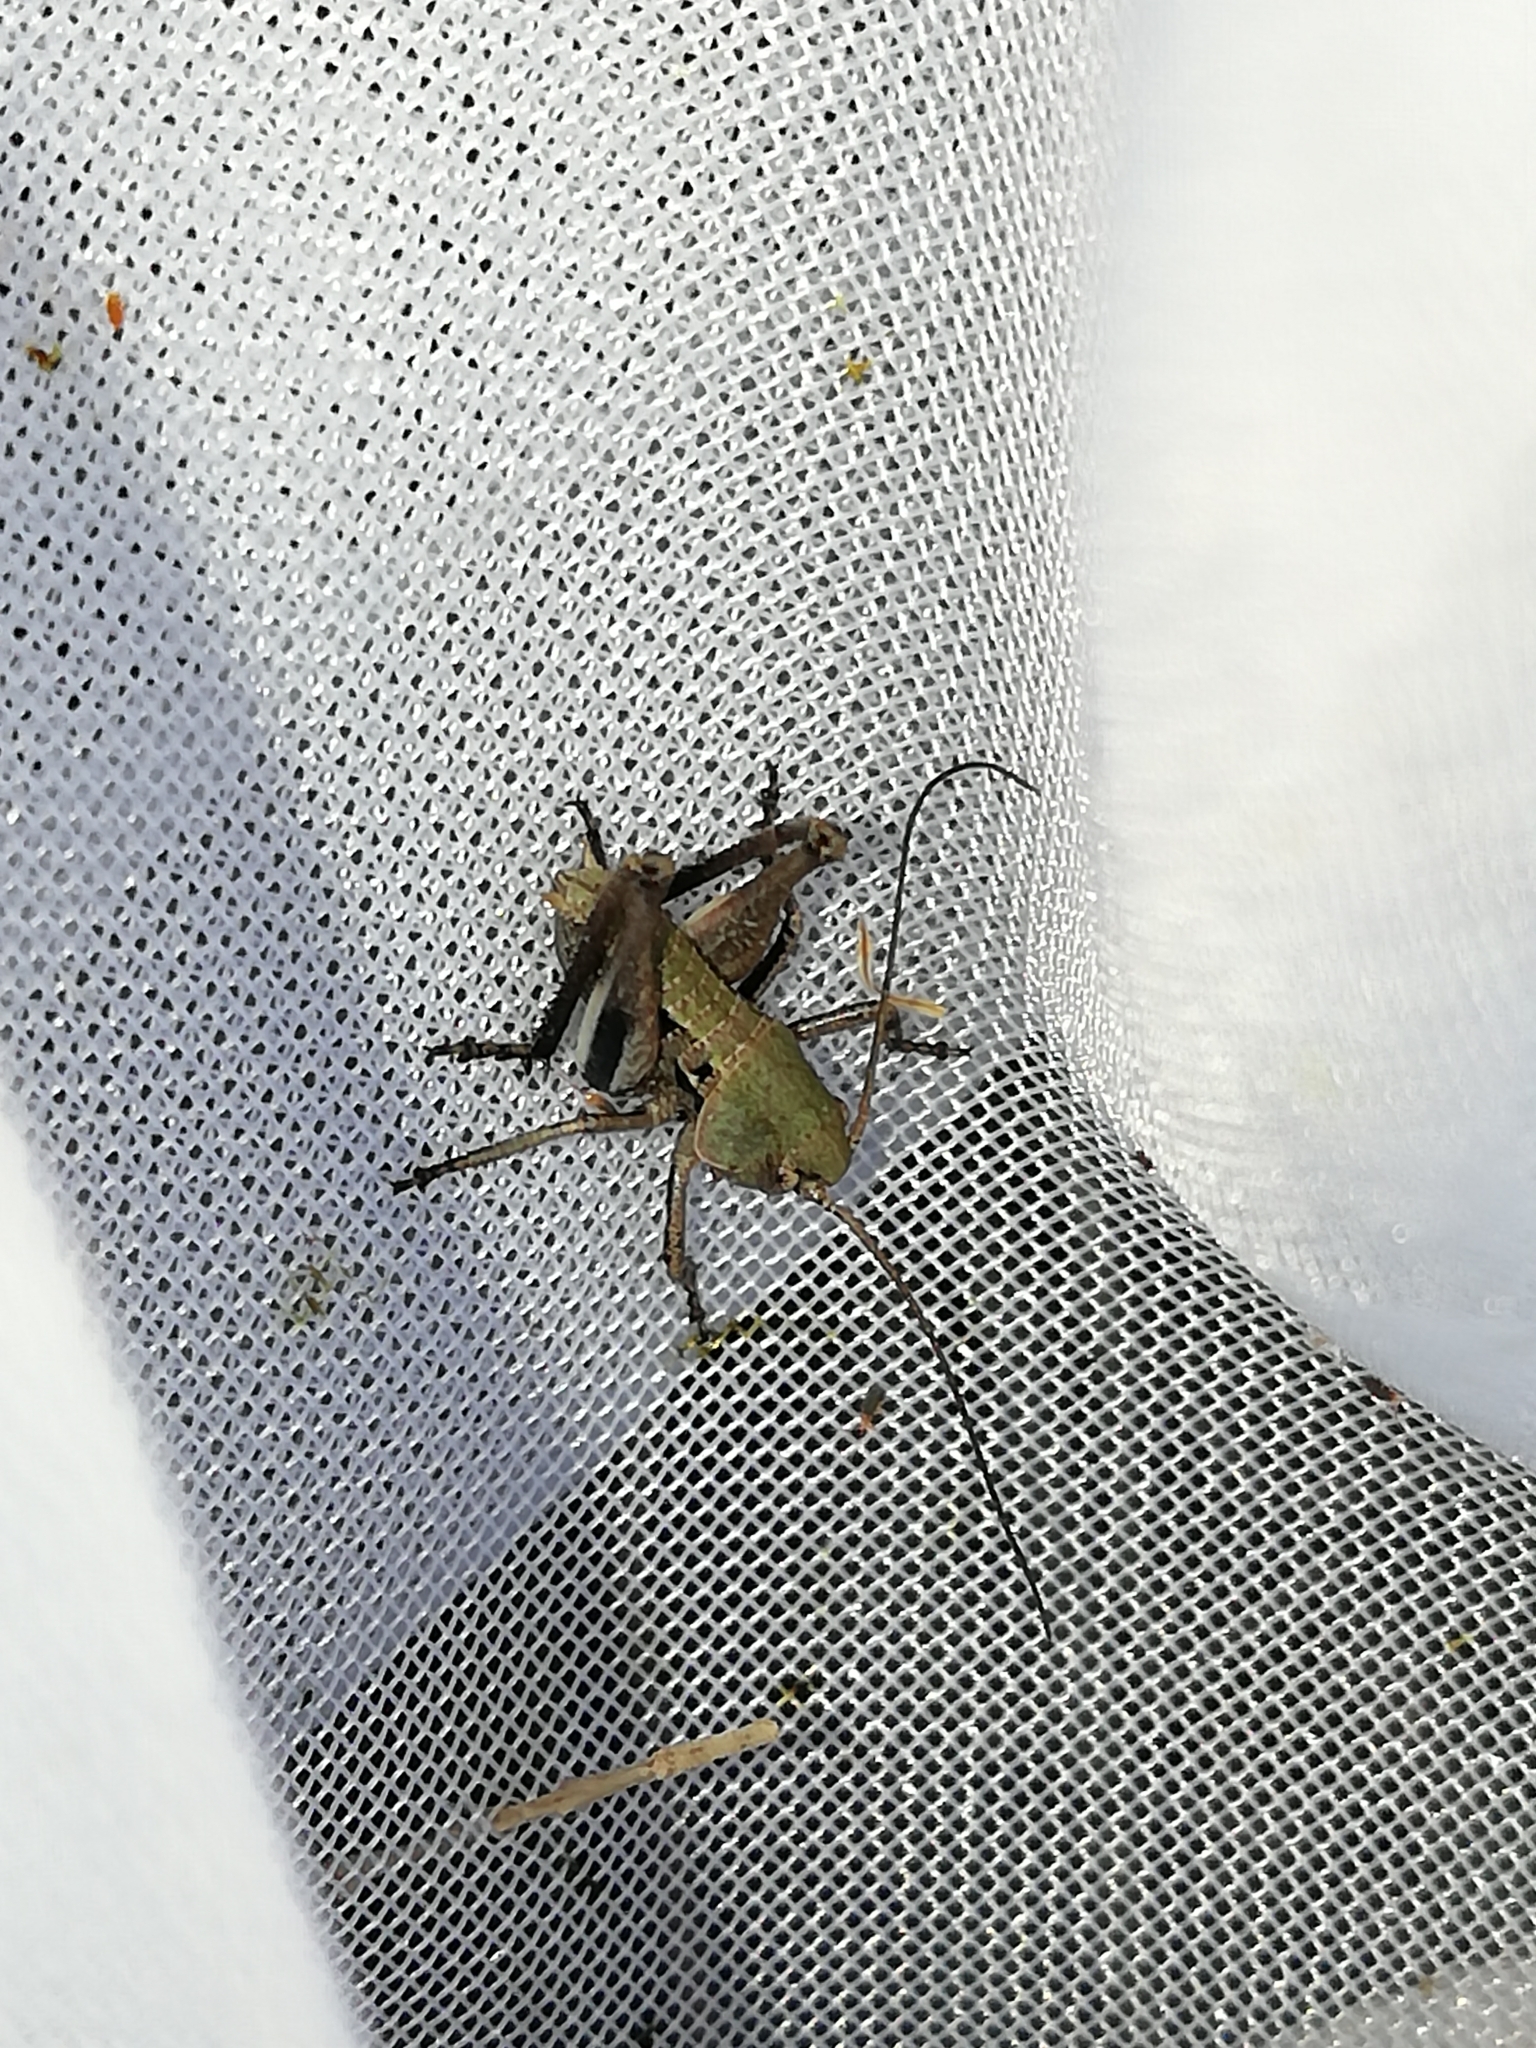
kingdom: Animalia
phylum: Arthropoda
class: Insecta
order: Orthoptera
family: Tettigoniidae
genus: Decticus
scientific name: Decticus verrucivorus
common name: Wart-biter
